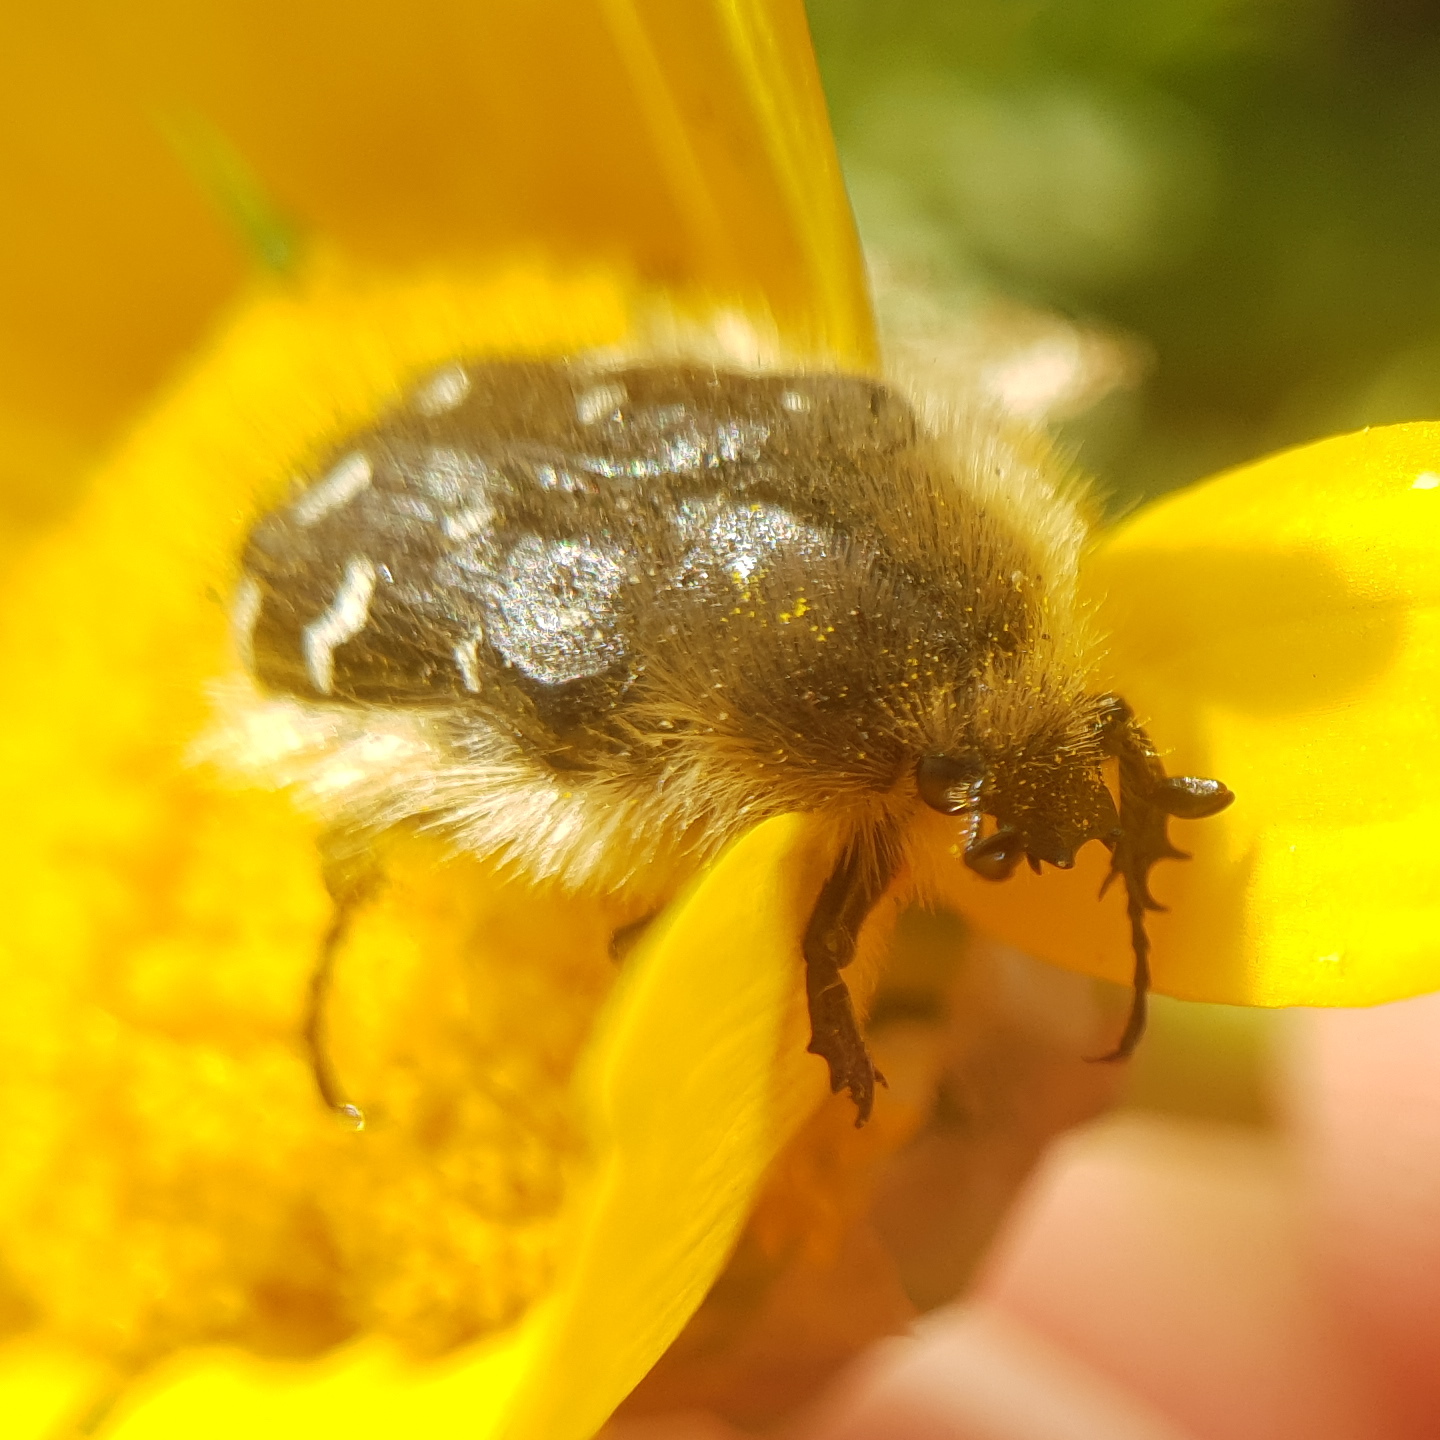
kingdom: Animalia
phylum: Arthropoda
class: Insecta
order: Coleoptera
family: Scarabaeidae
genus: Tropinota
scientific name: Tropinota hirta
